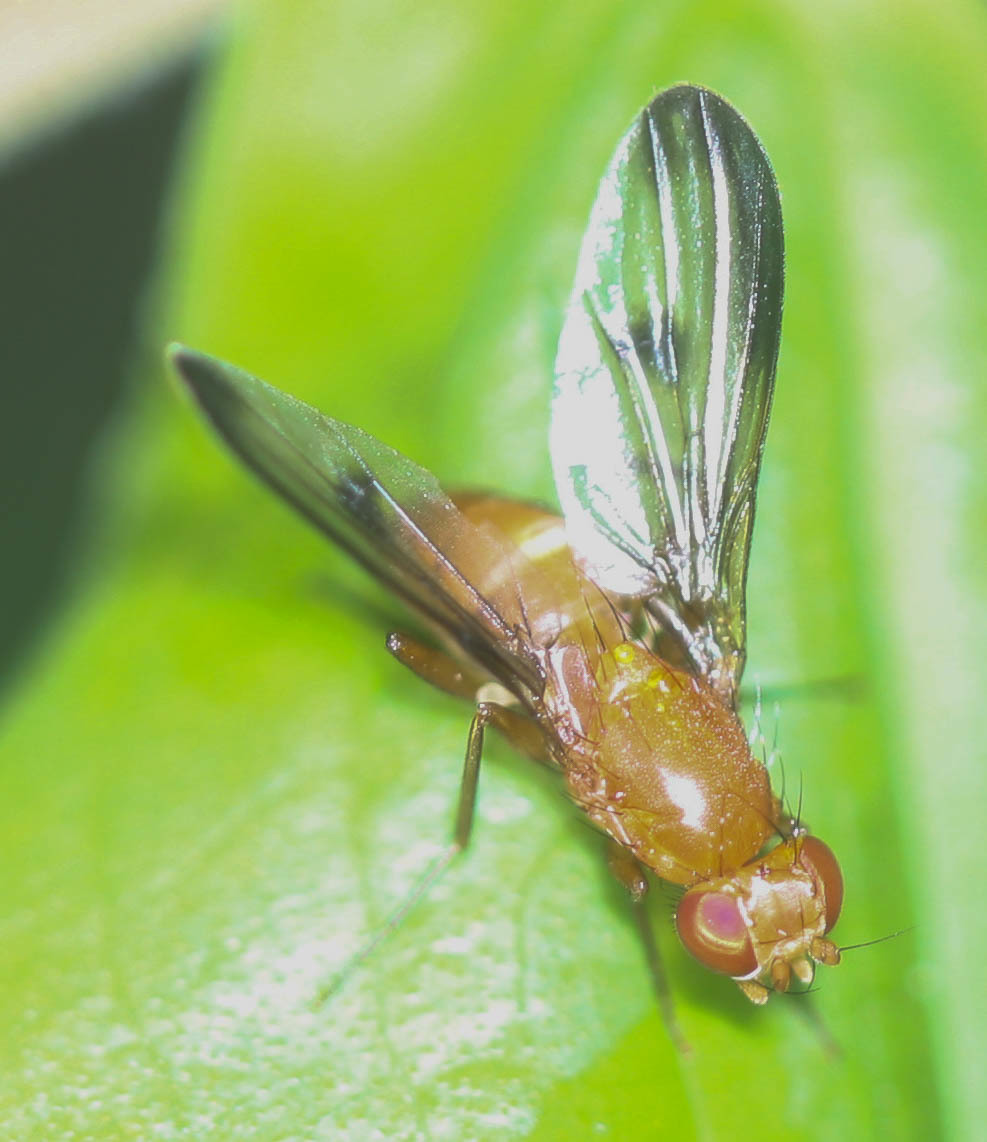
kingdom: Animalia
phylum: Arthropoda
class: Insecta
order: Diptera
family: Clusiidae
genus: Clusia
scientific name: Clusia occidentalis
